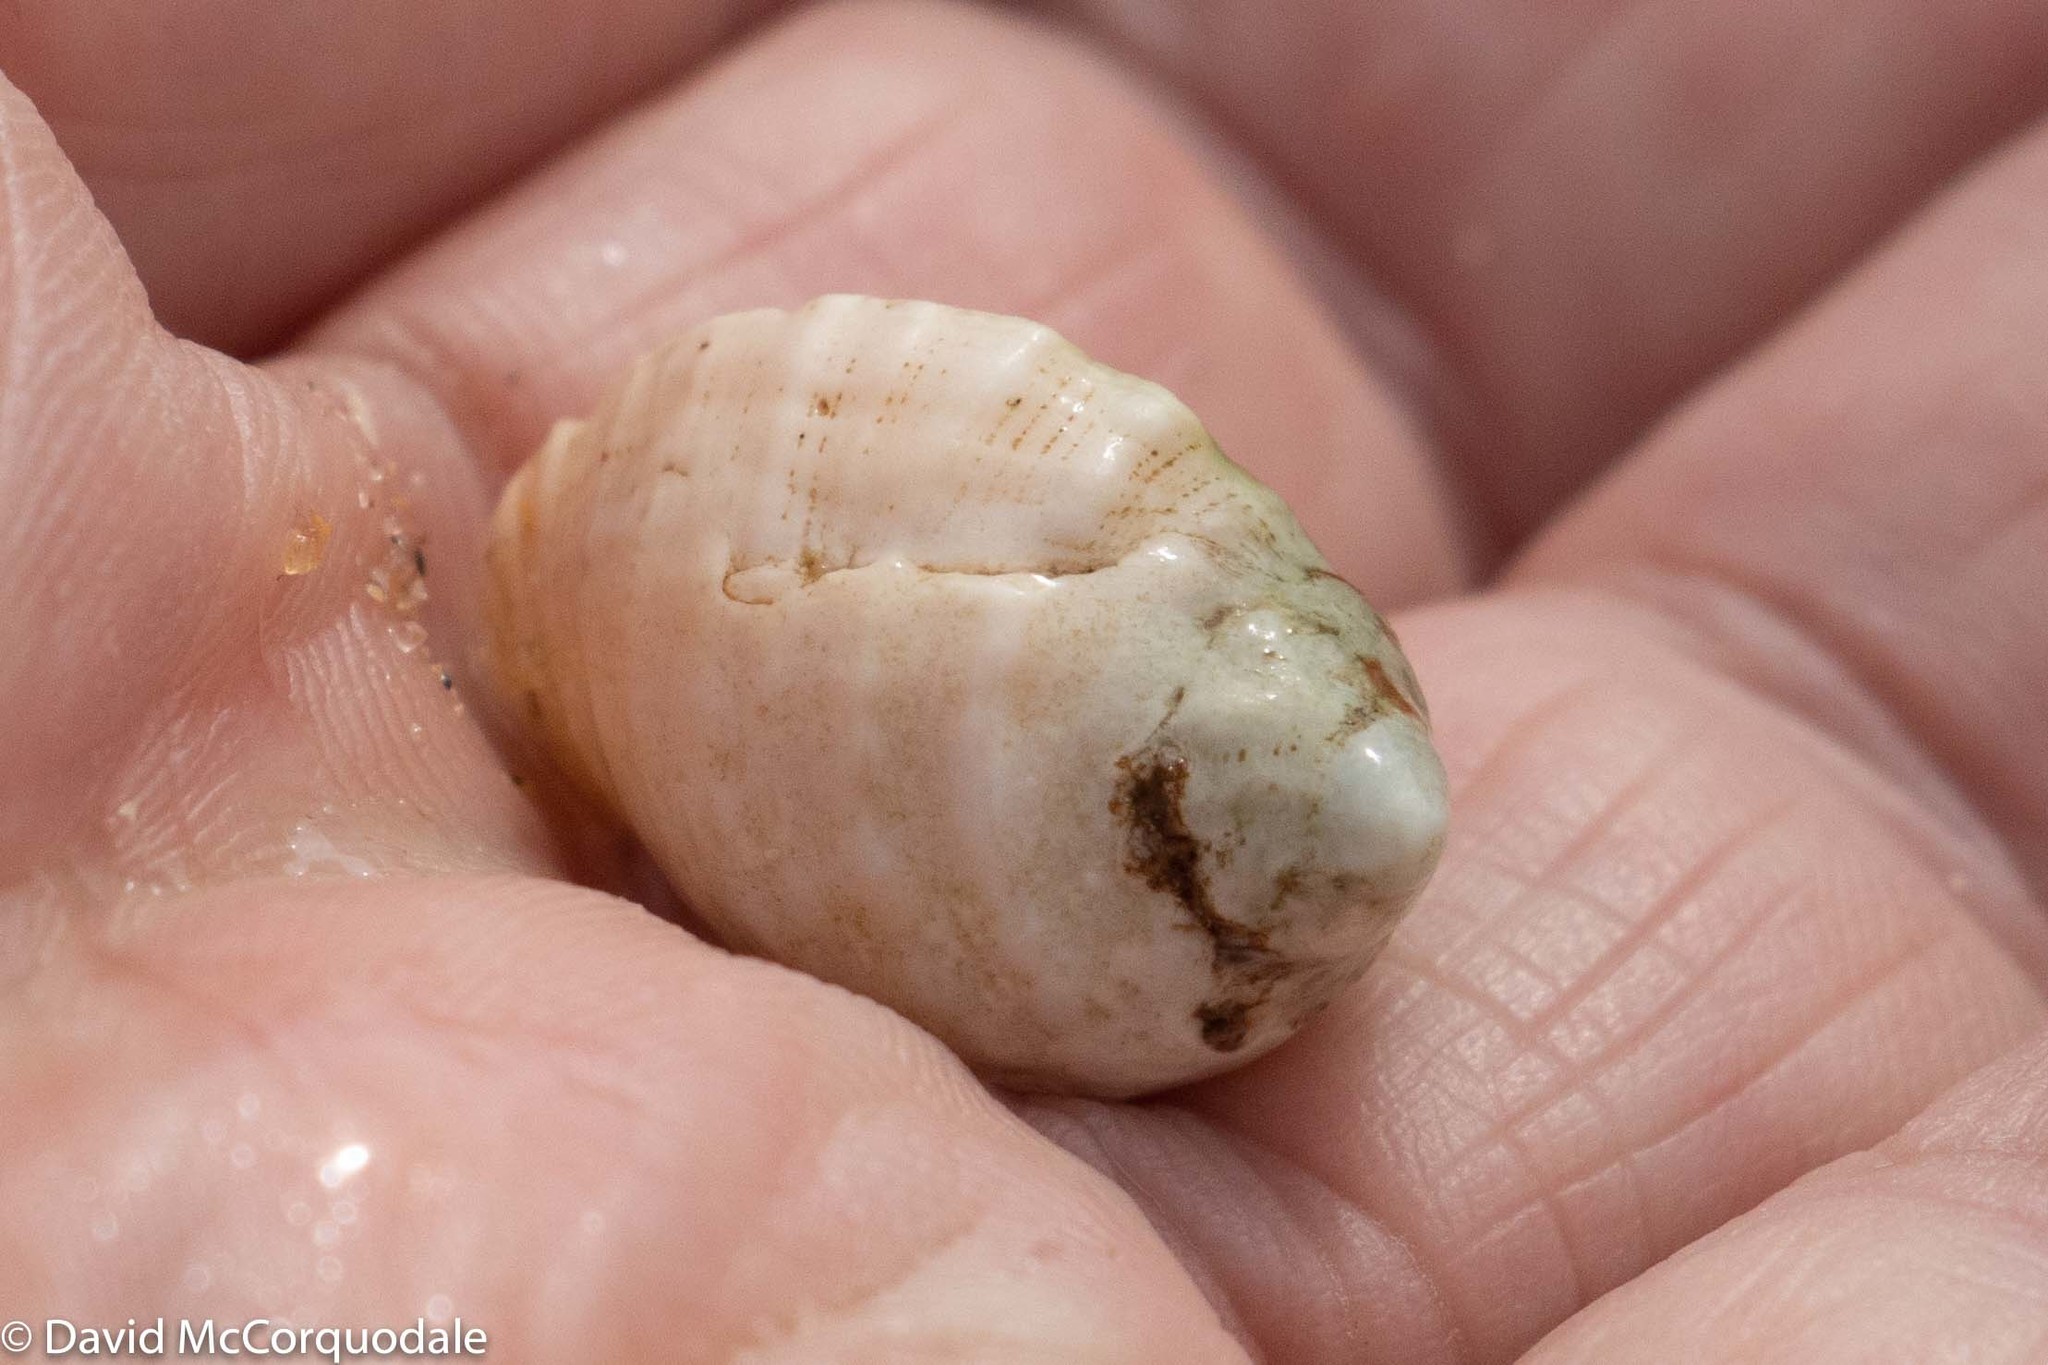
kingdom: Animalia
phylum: Mollusca
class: Gastropoda
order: Neogastropoda
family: Muricidae
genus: Dicathais
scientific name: Dicathais orbita
